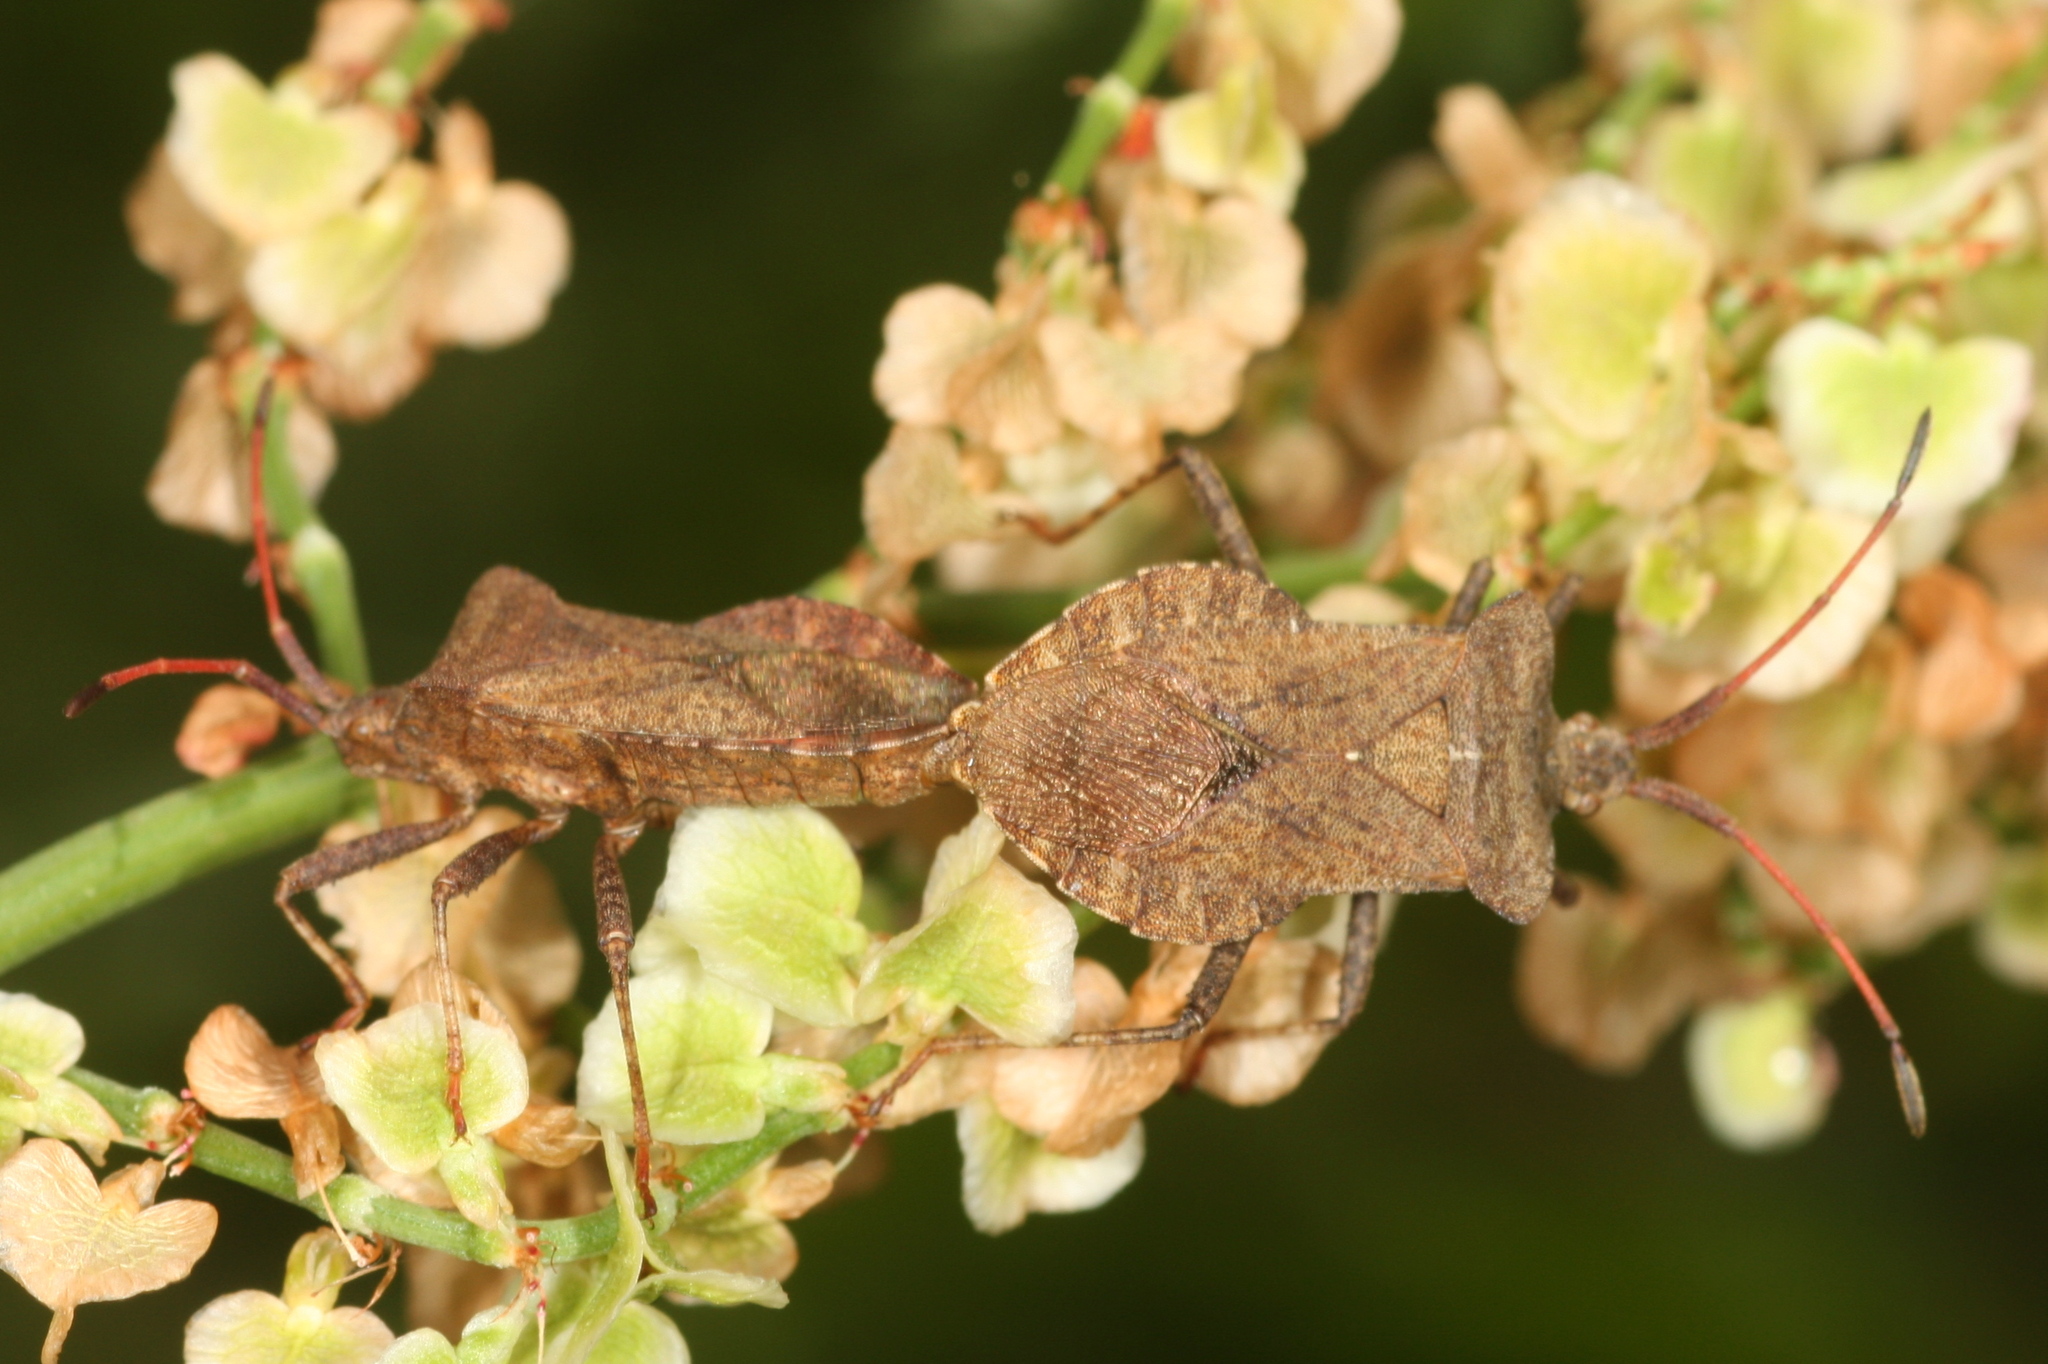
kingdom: Animalia
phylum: Arthropoda
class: Insecta
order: Hemiptera
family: Coreidae
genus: Coreus
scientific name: Coreus marginatus
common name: Dock bug
